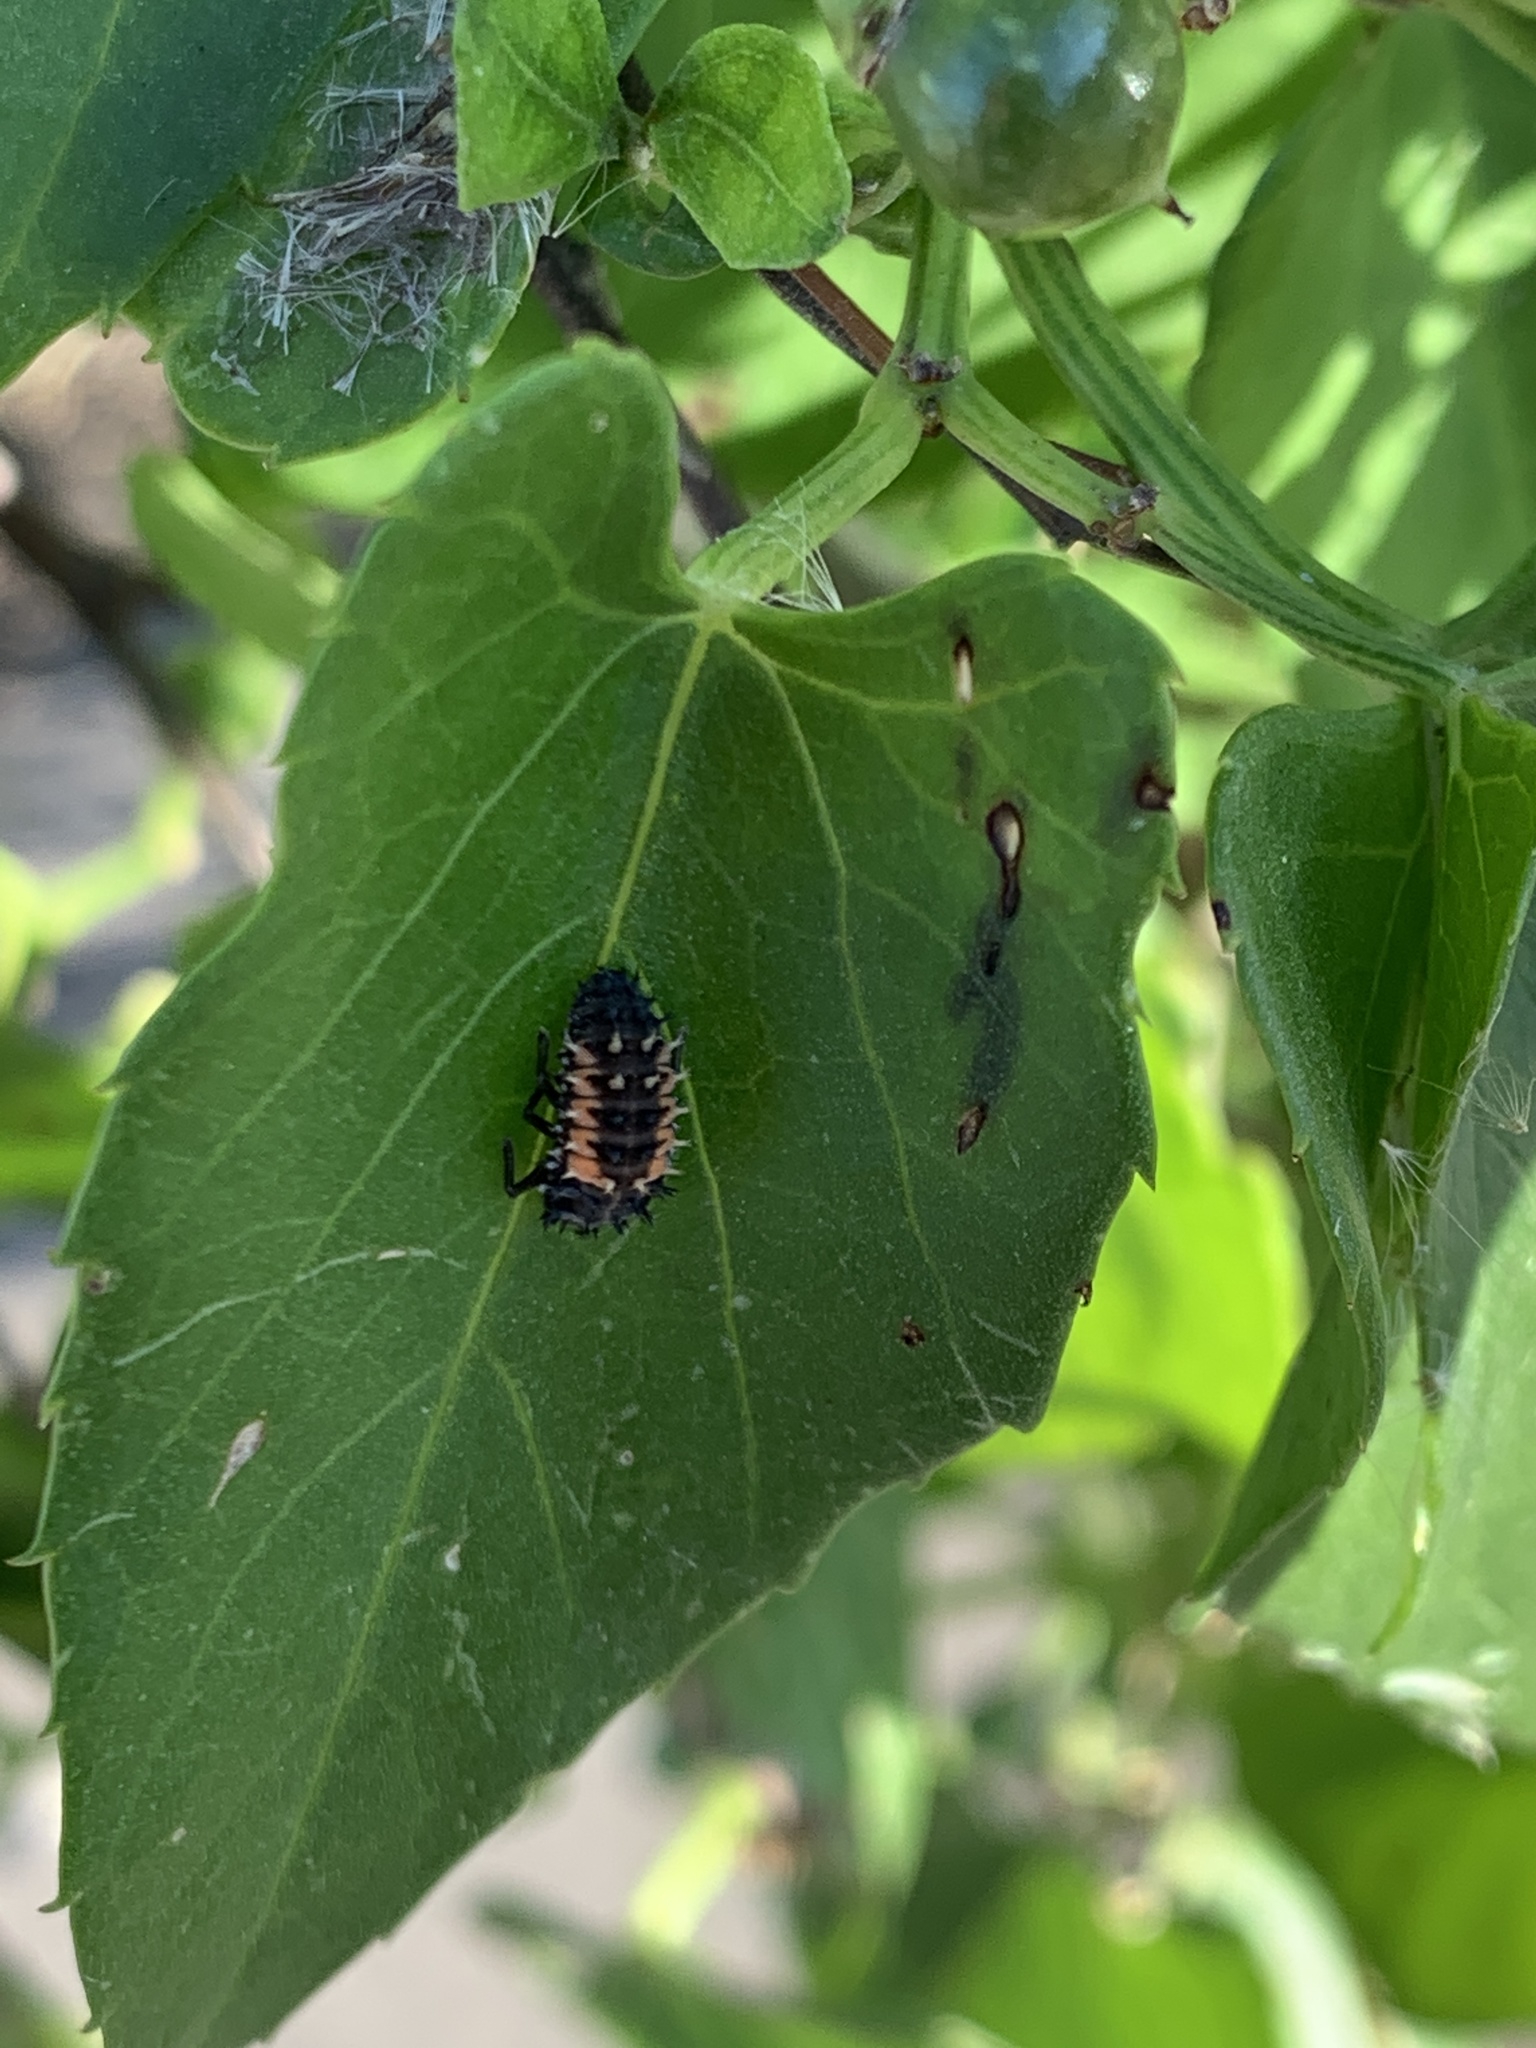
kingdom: Animalia
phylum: Arthropoda
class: Insecta
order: Coleoptera
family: Coccinellidae
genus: Harmonia
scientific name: Harmonia axyridis
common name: Harlequin ladybird
